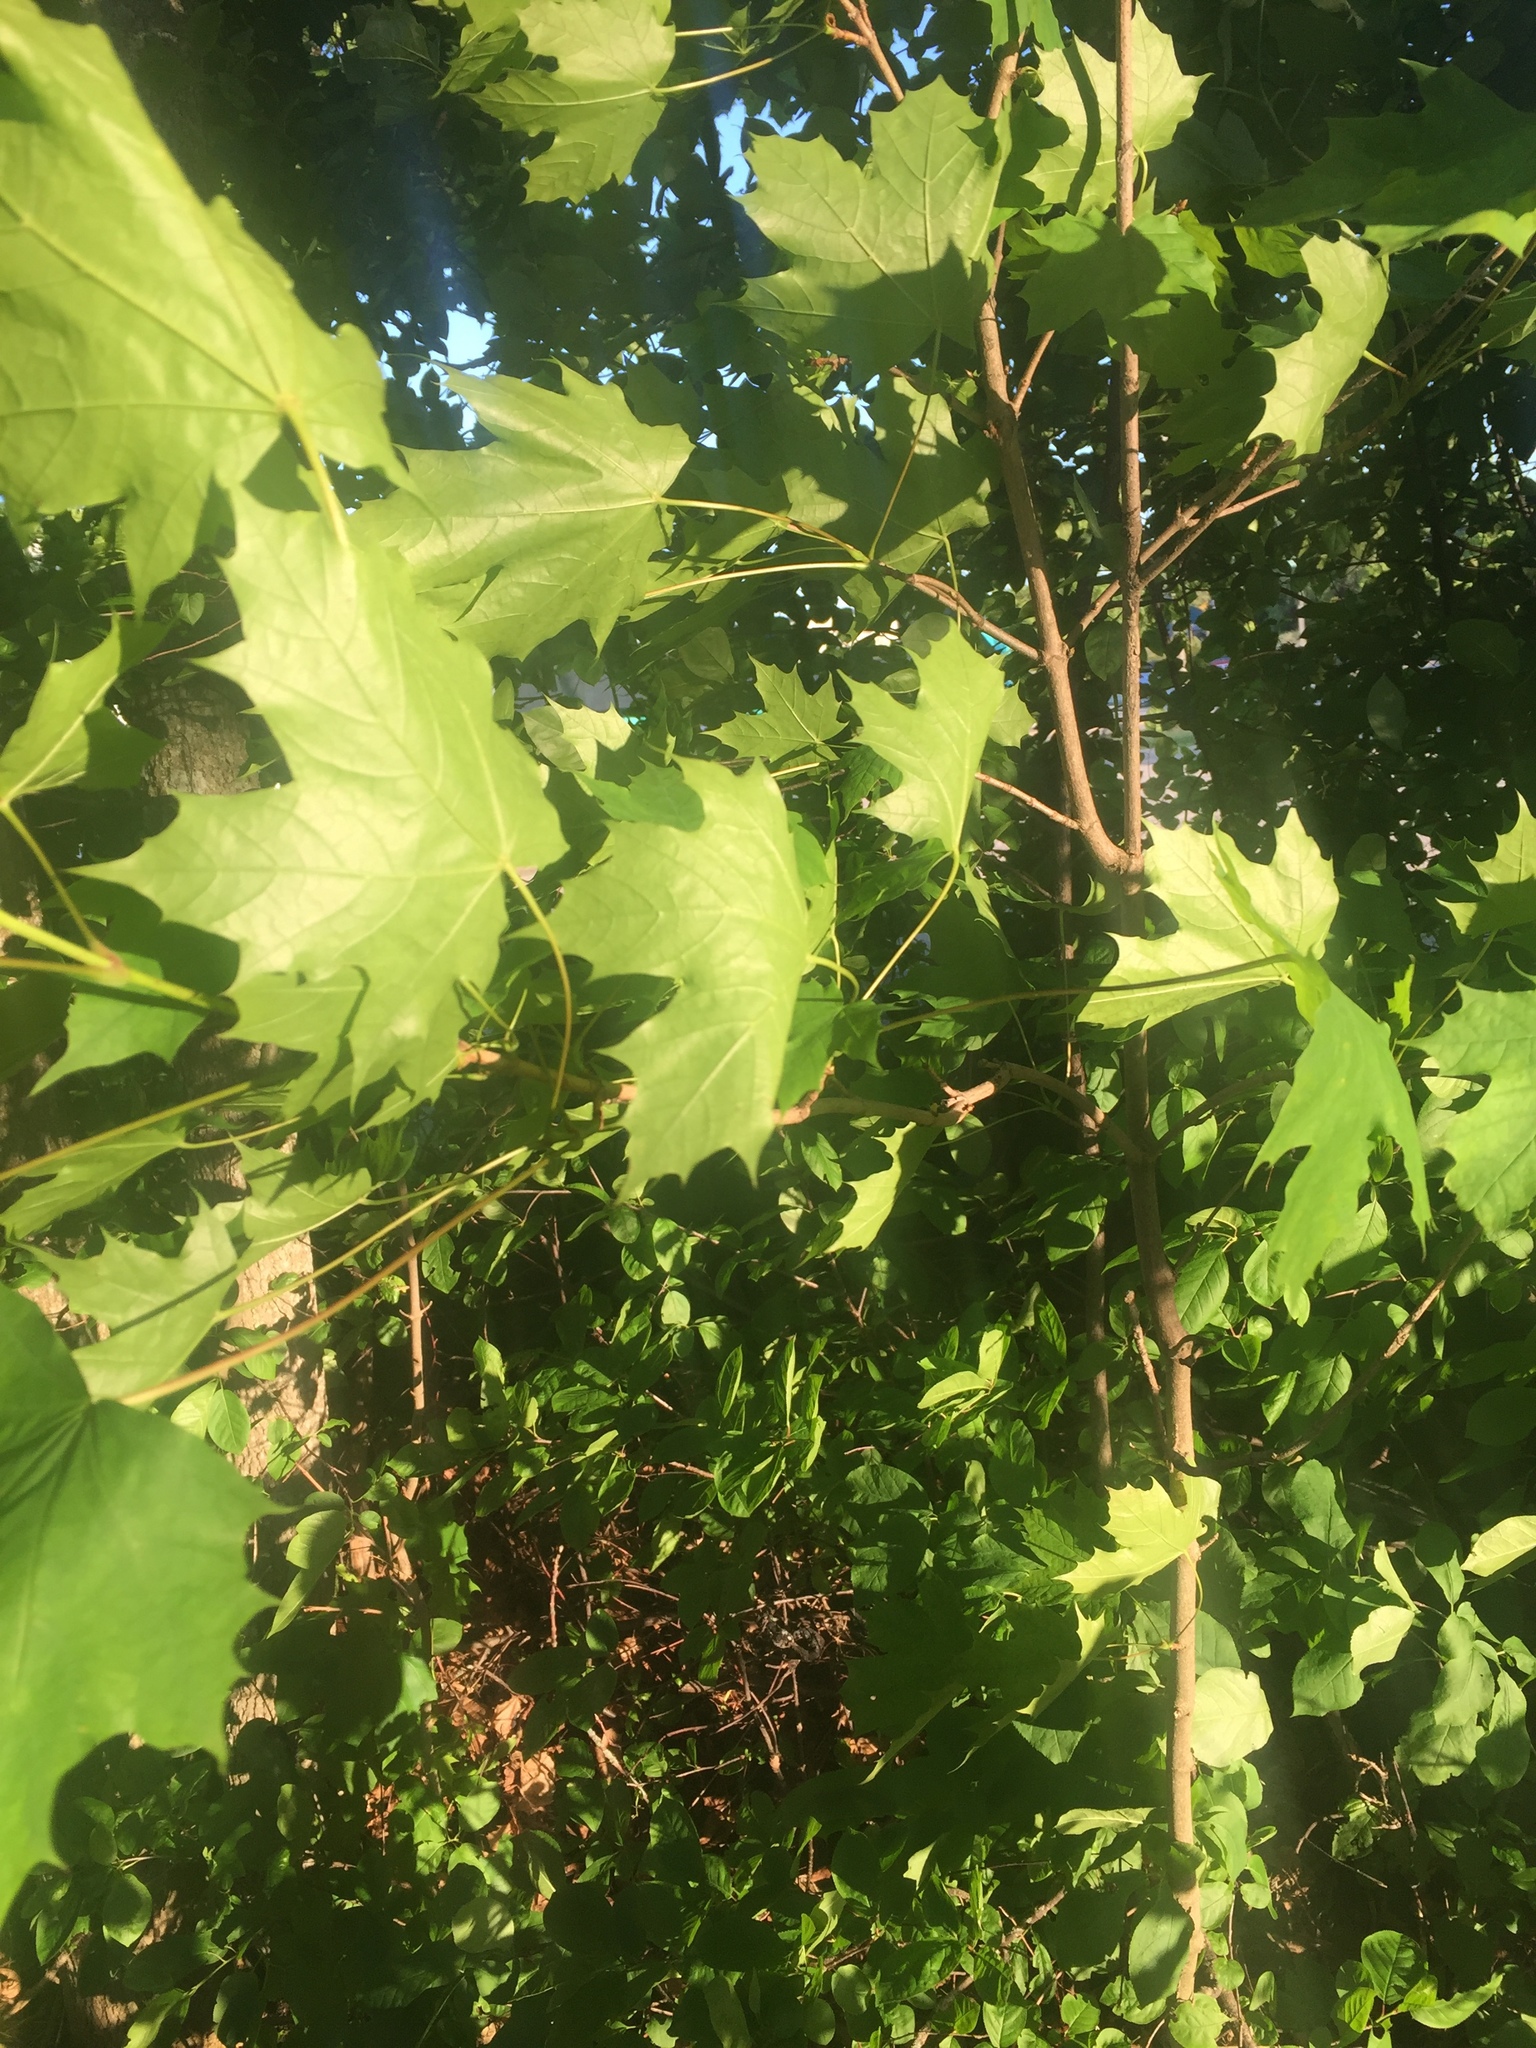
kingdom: Plantae
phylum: Tracheophyta
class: Magnoliopsida
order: Sapindales
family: Sapindaceae
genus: Acer
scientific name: Acer platanoides
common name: Norway maple
